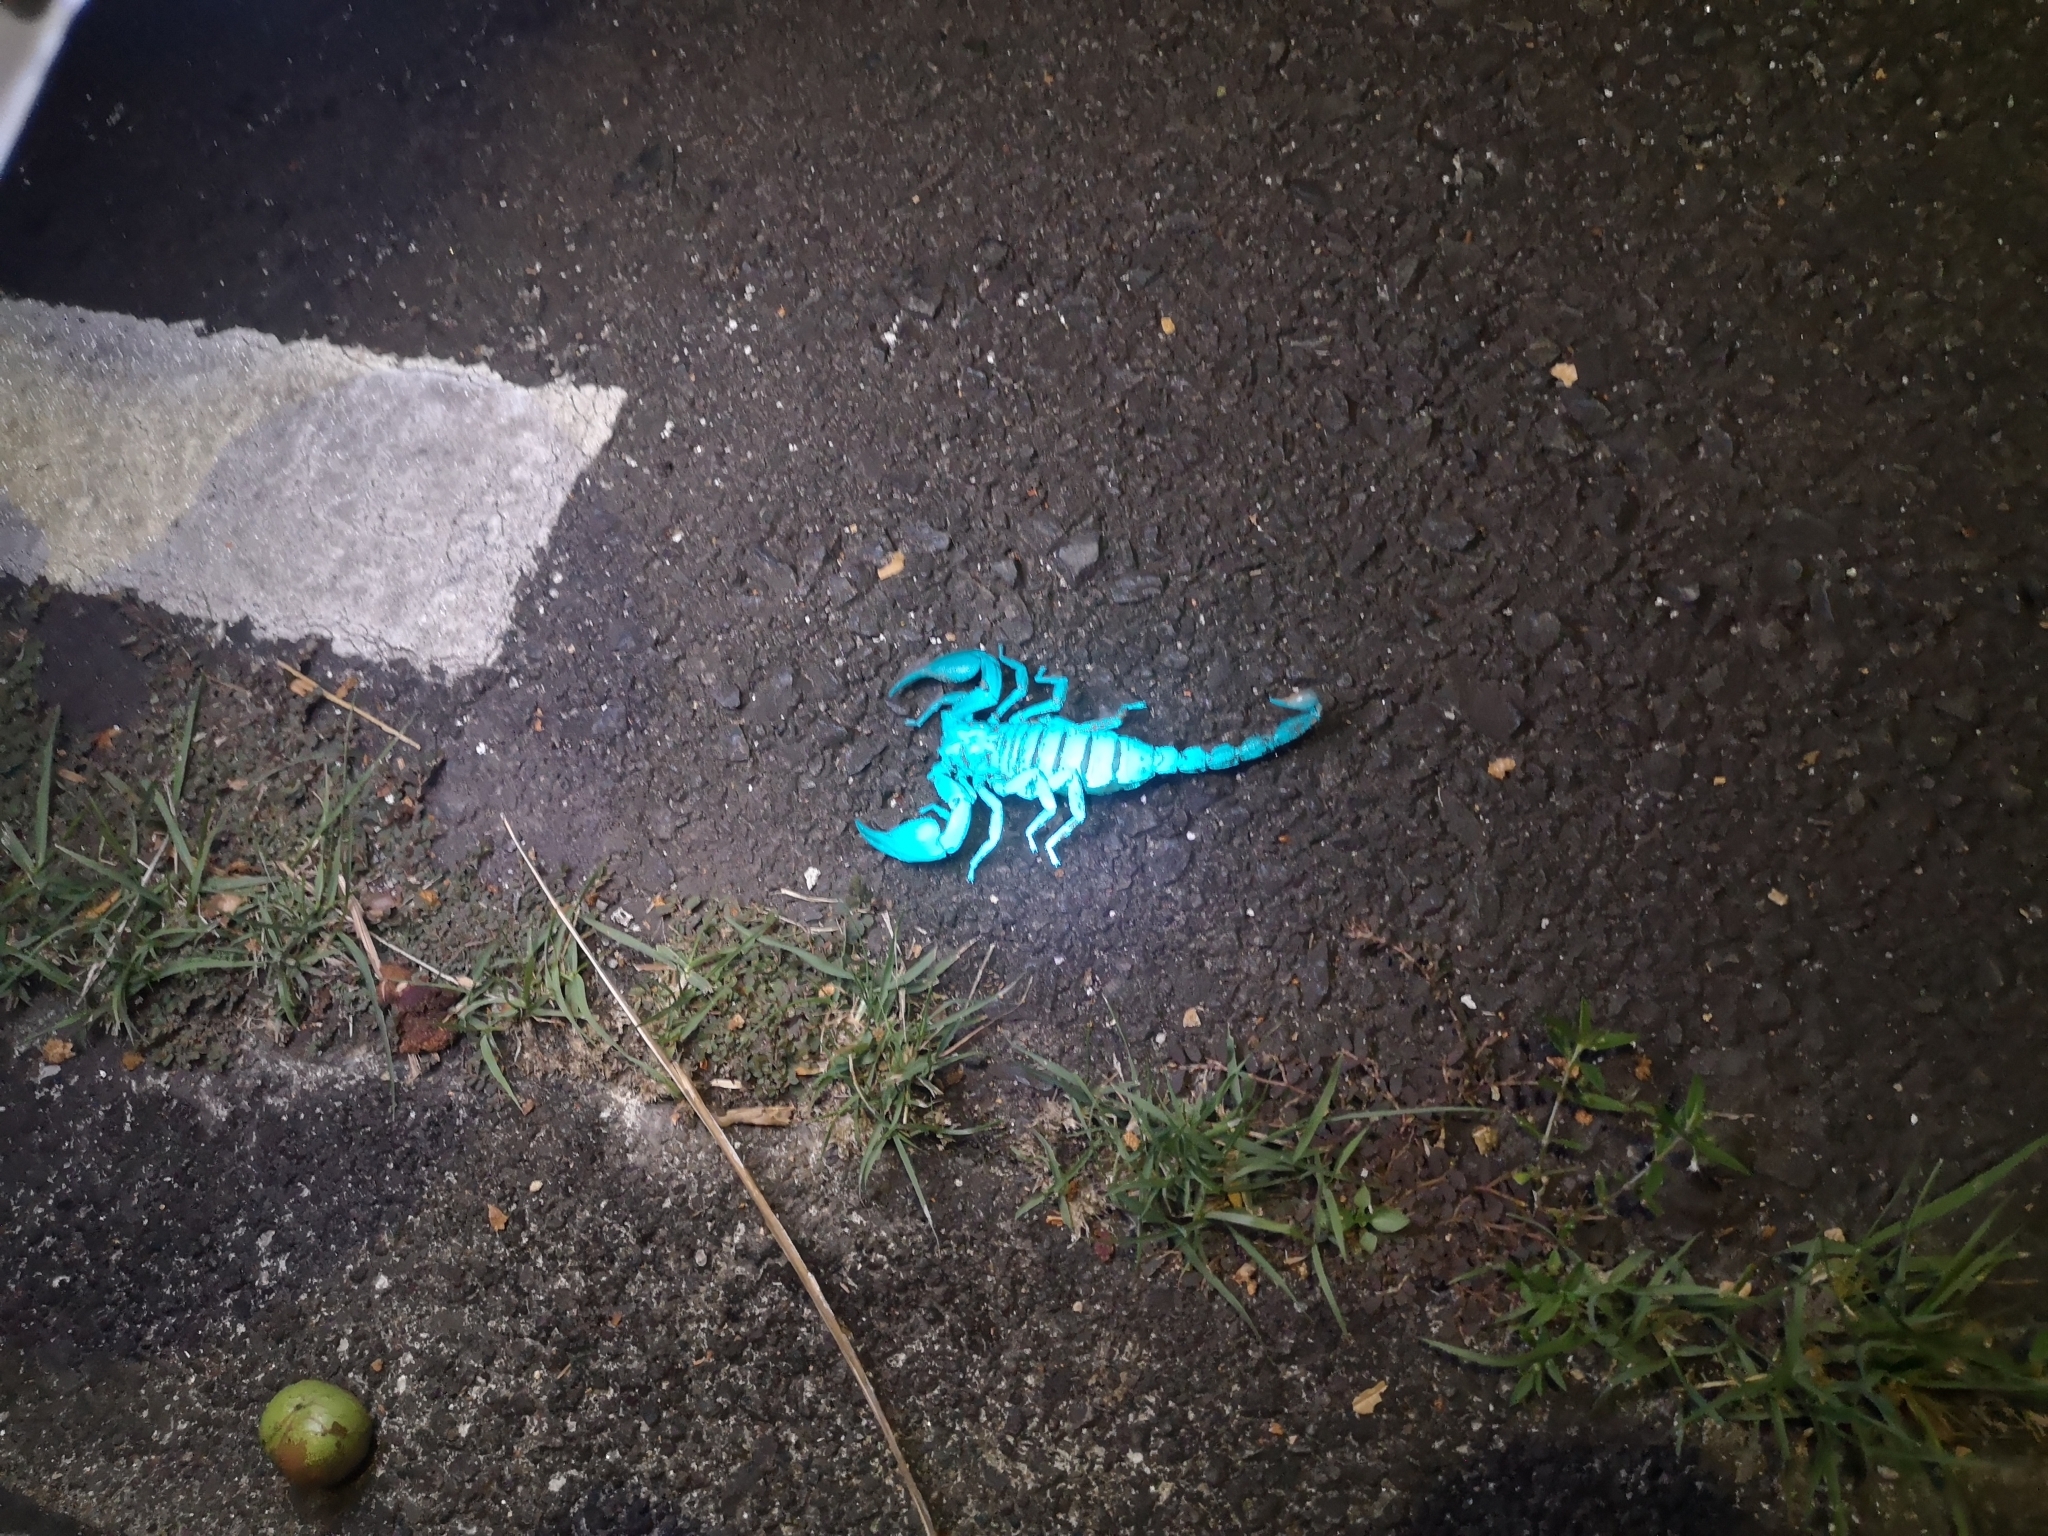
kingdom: Animalia
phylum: Arthropoda
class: Arachnida
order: Scorpiones
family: Scorpionidae
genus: Heterometrus
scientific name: Heterometrus petersii
